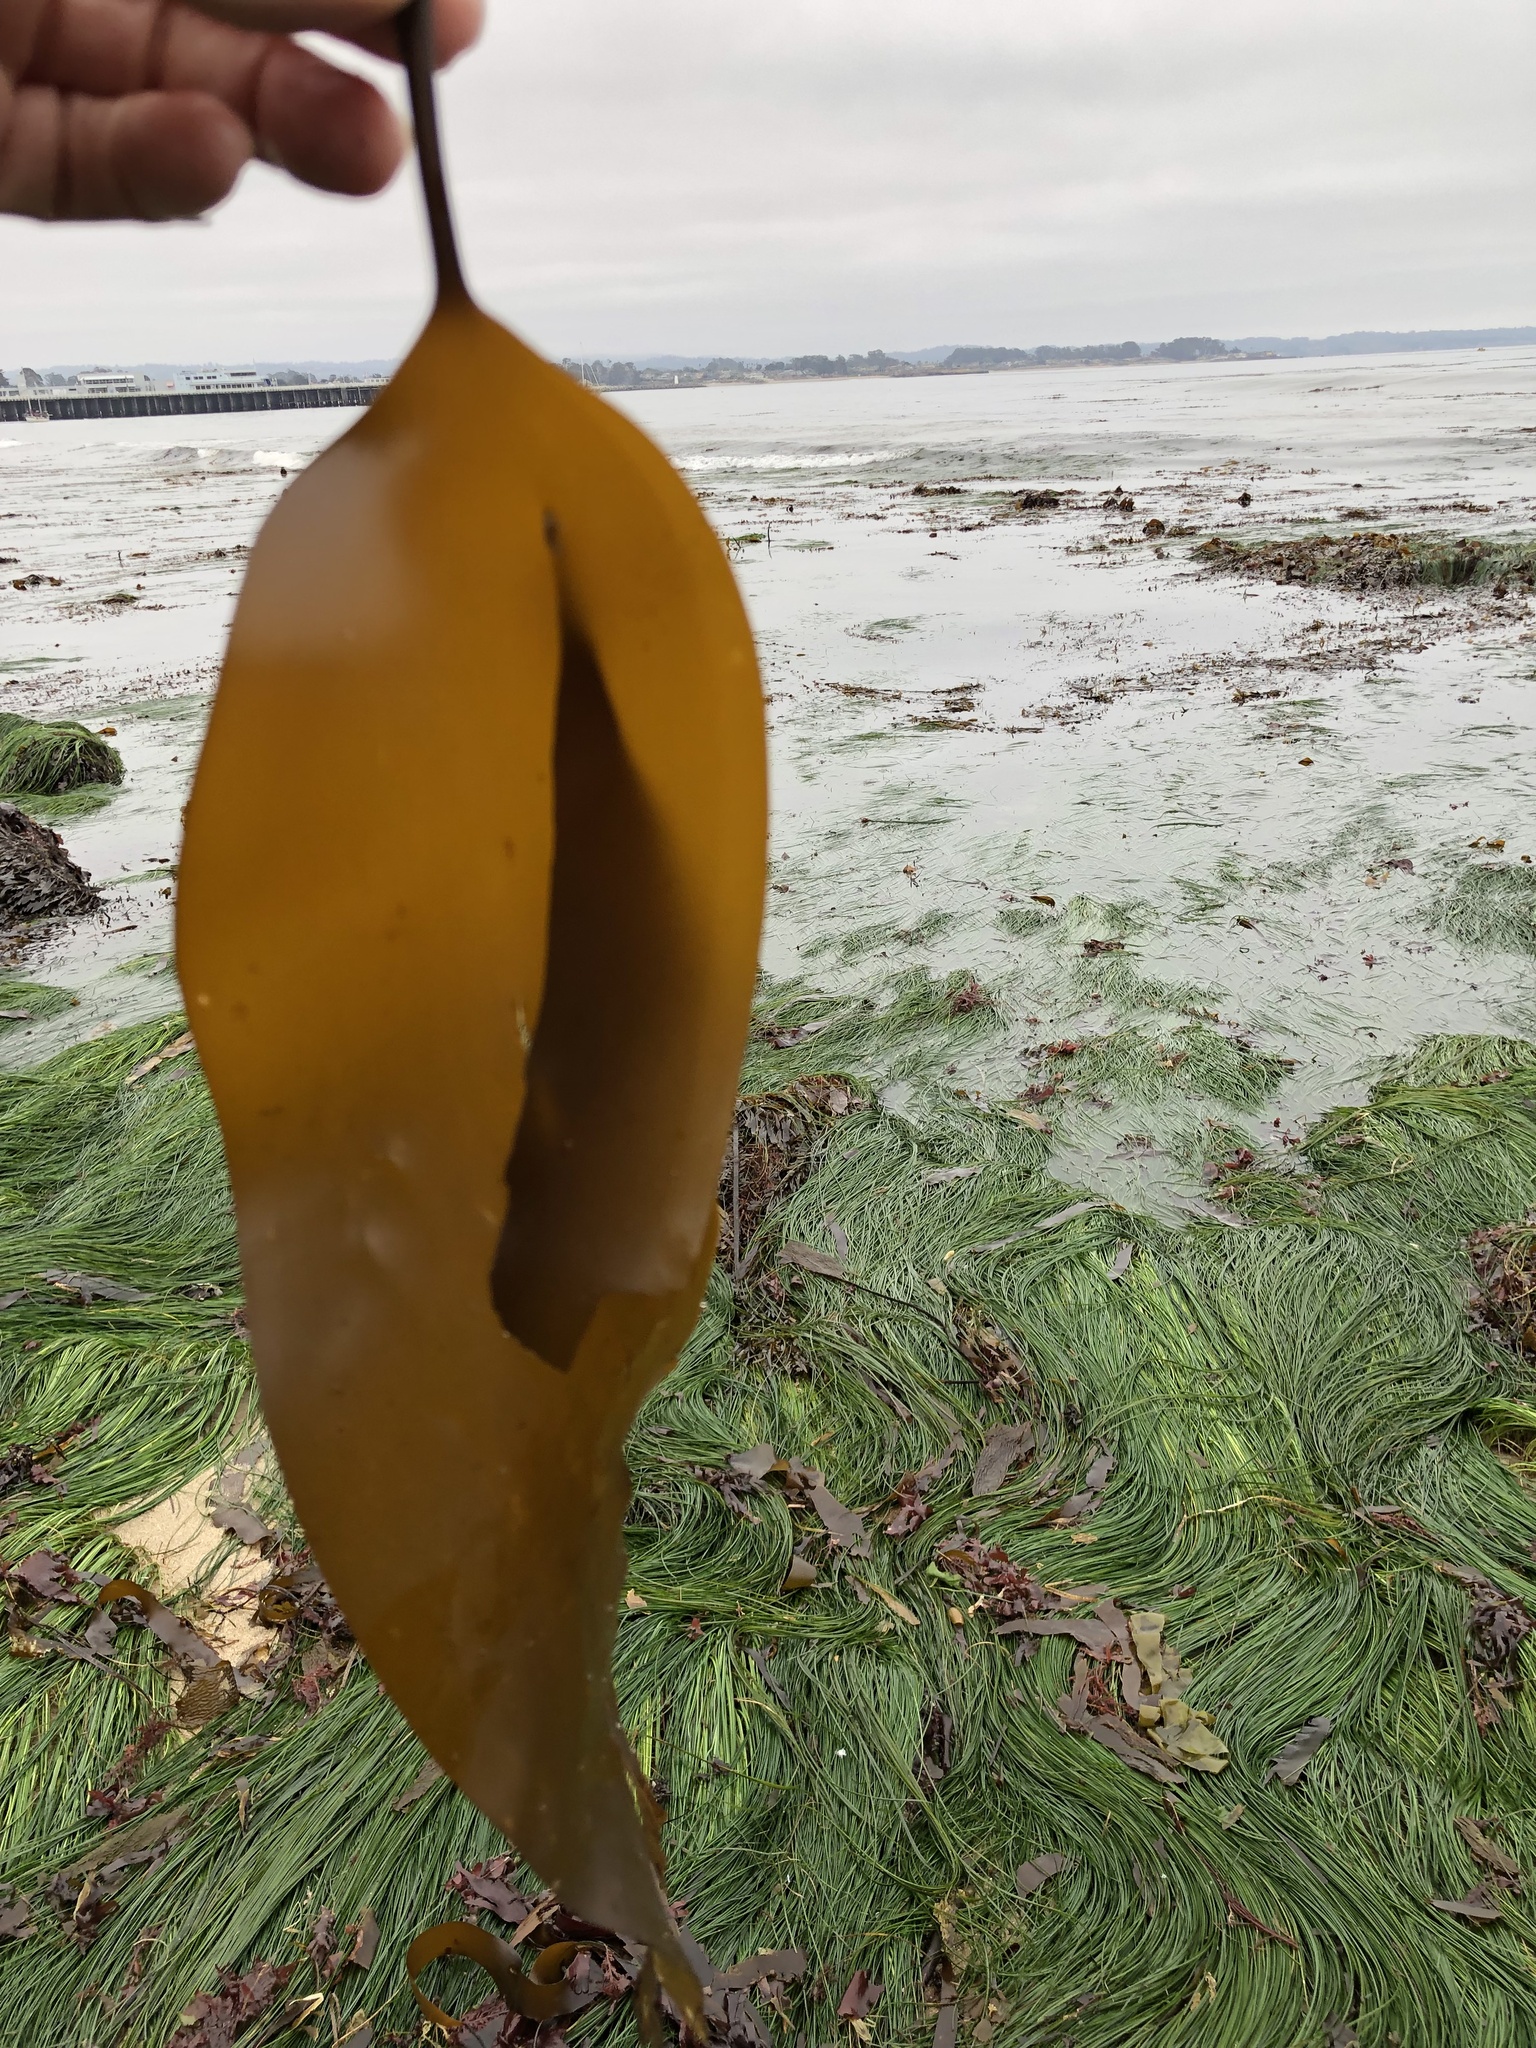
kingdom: Chromista
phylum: Ochrophyta
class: Phaeophyceae
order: Laminariales
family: Laminariaceae
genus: Laminaria
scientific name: Laminaria setchellii
